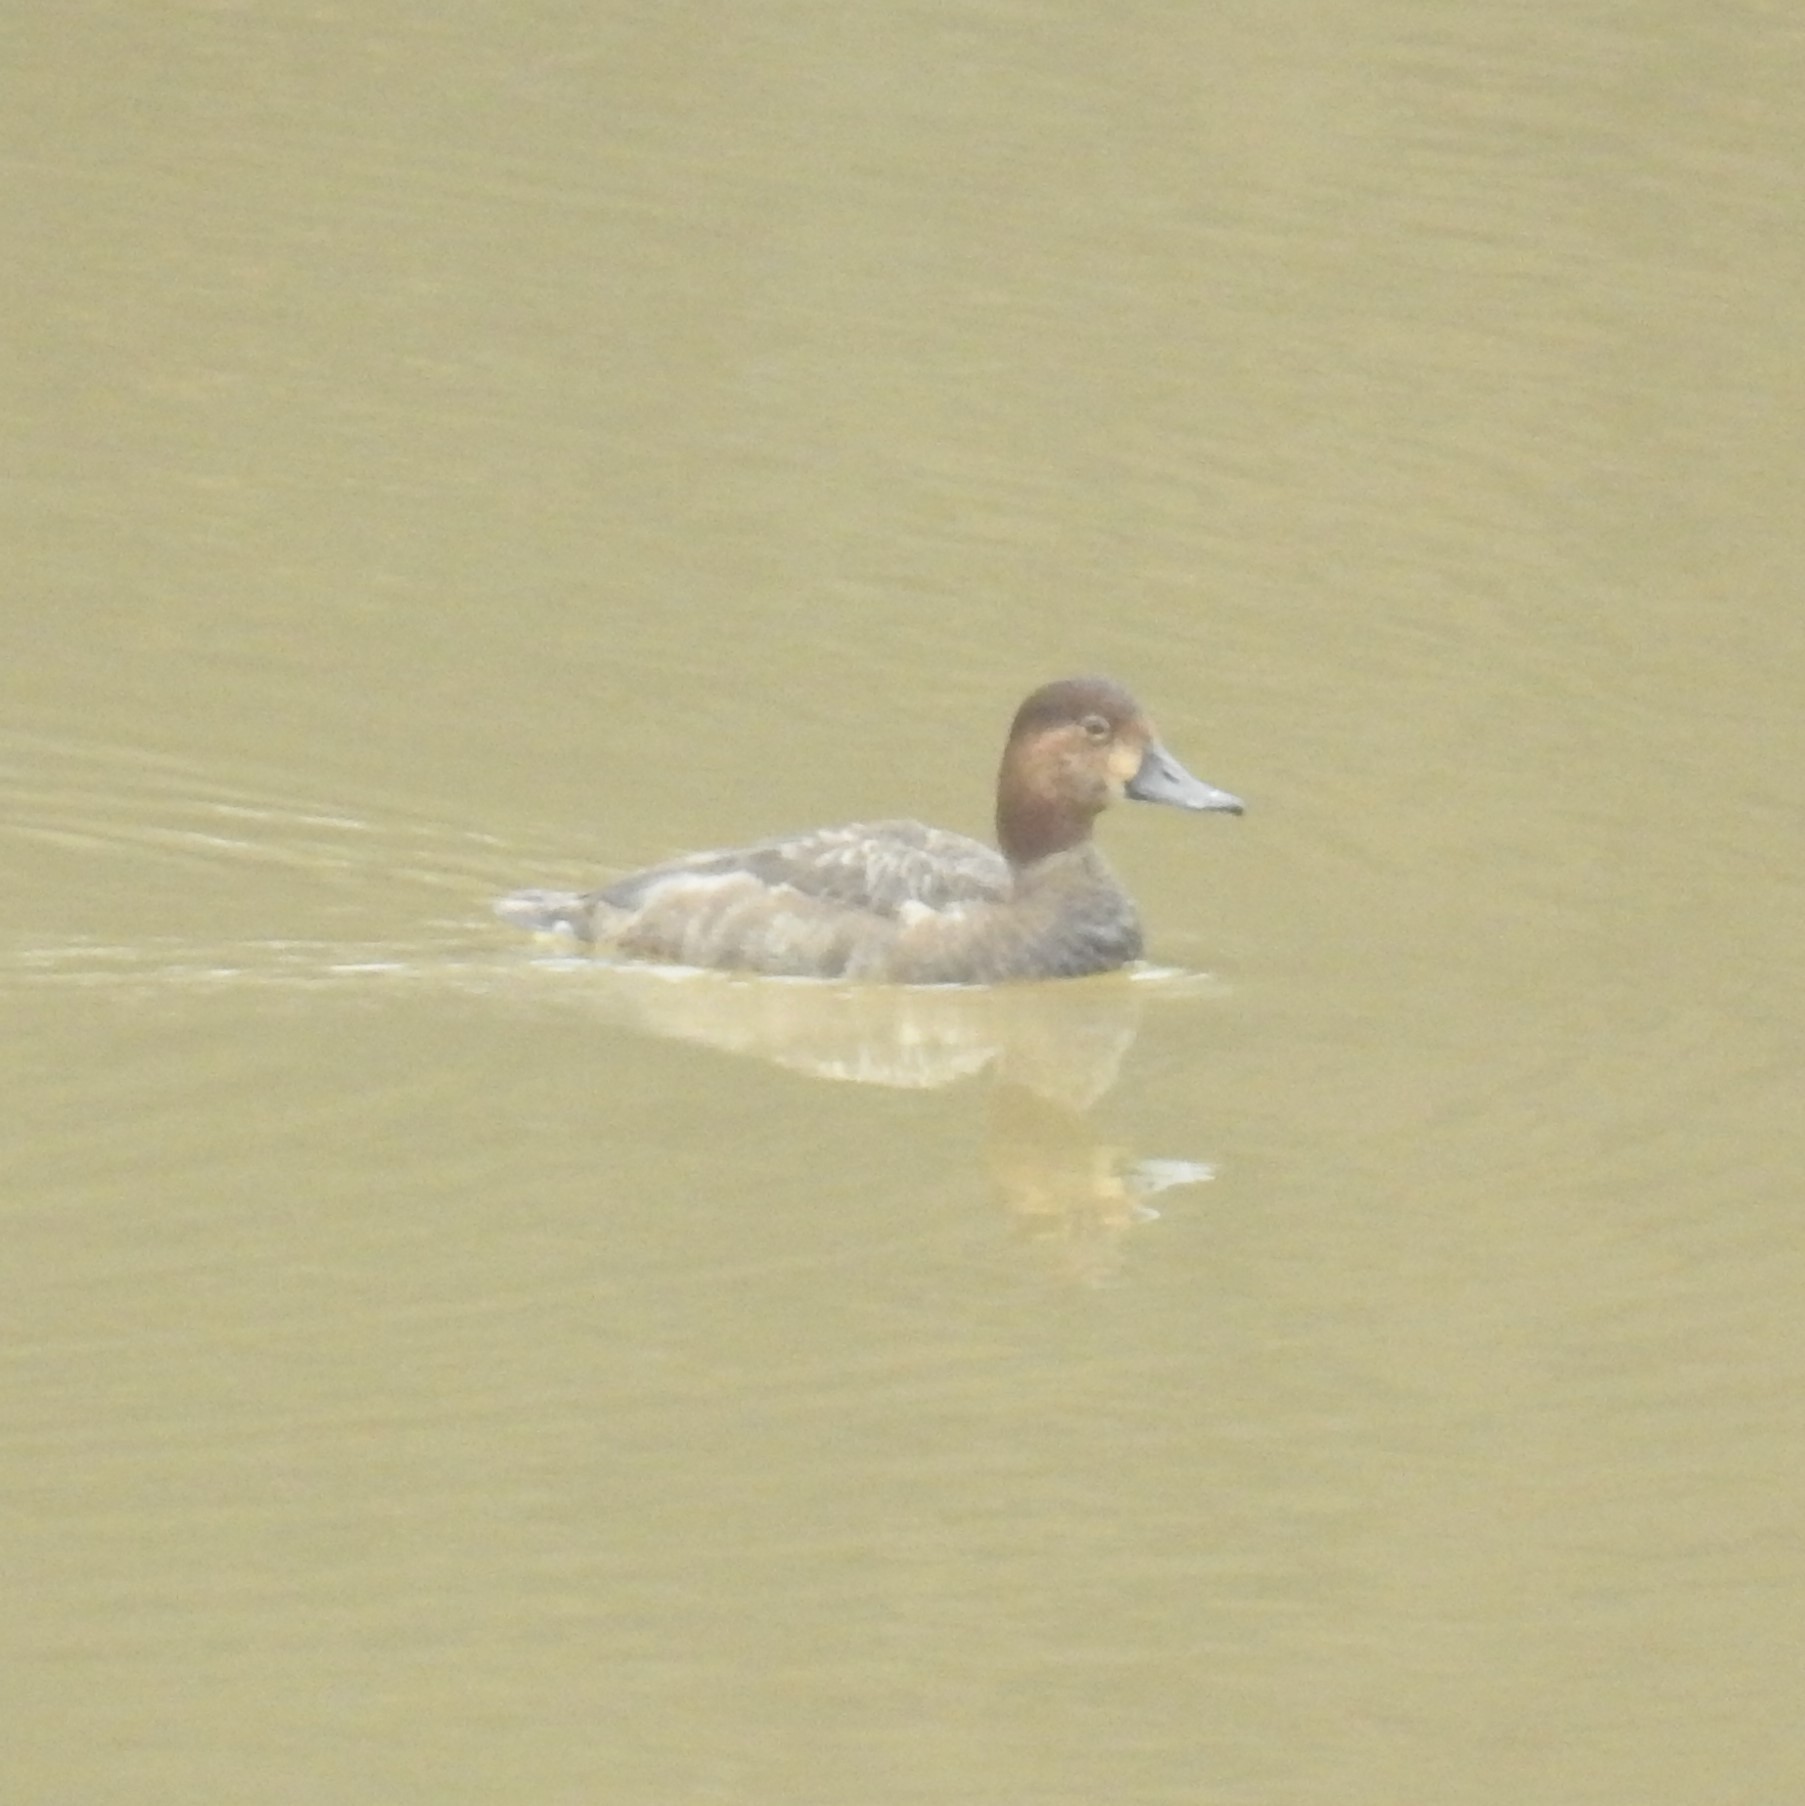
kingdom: Animalia
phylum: Chordata
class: Aves
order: Anseriformes
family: Anatidae
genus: Aythya
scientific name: Aythya americana
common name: Redhead
